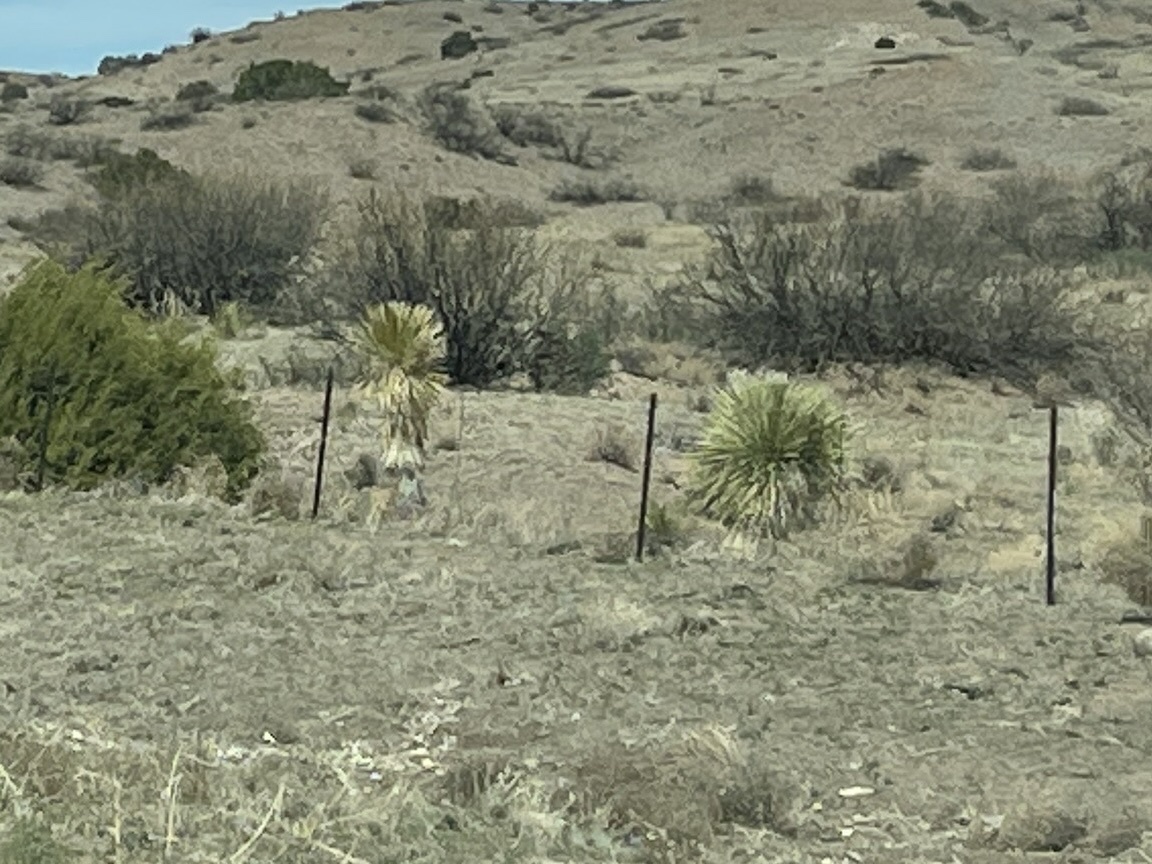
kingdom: Plantae
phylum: Tracheophyta
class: Liliopsida
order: Asparagales
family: Asparagaceae
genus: Yucca
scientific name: Yucca elata
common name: Palmella
